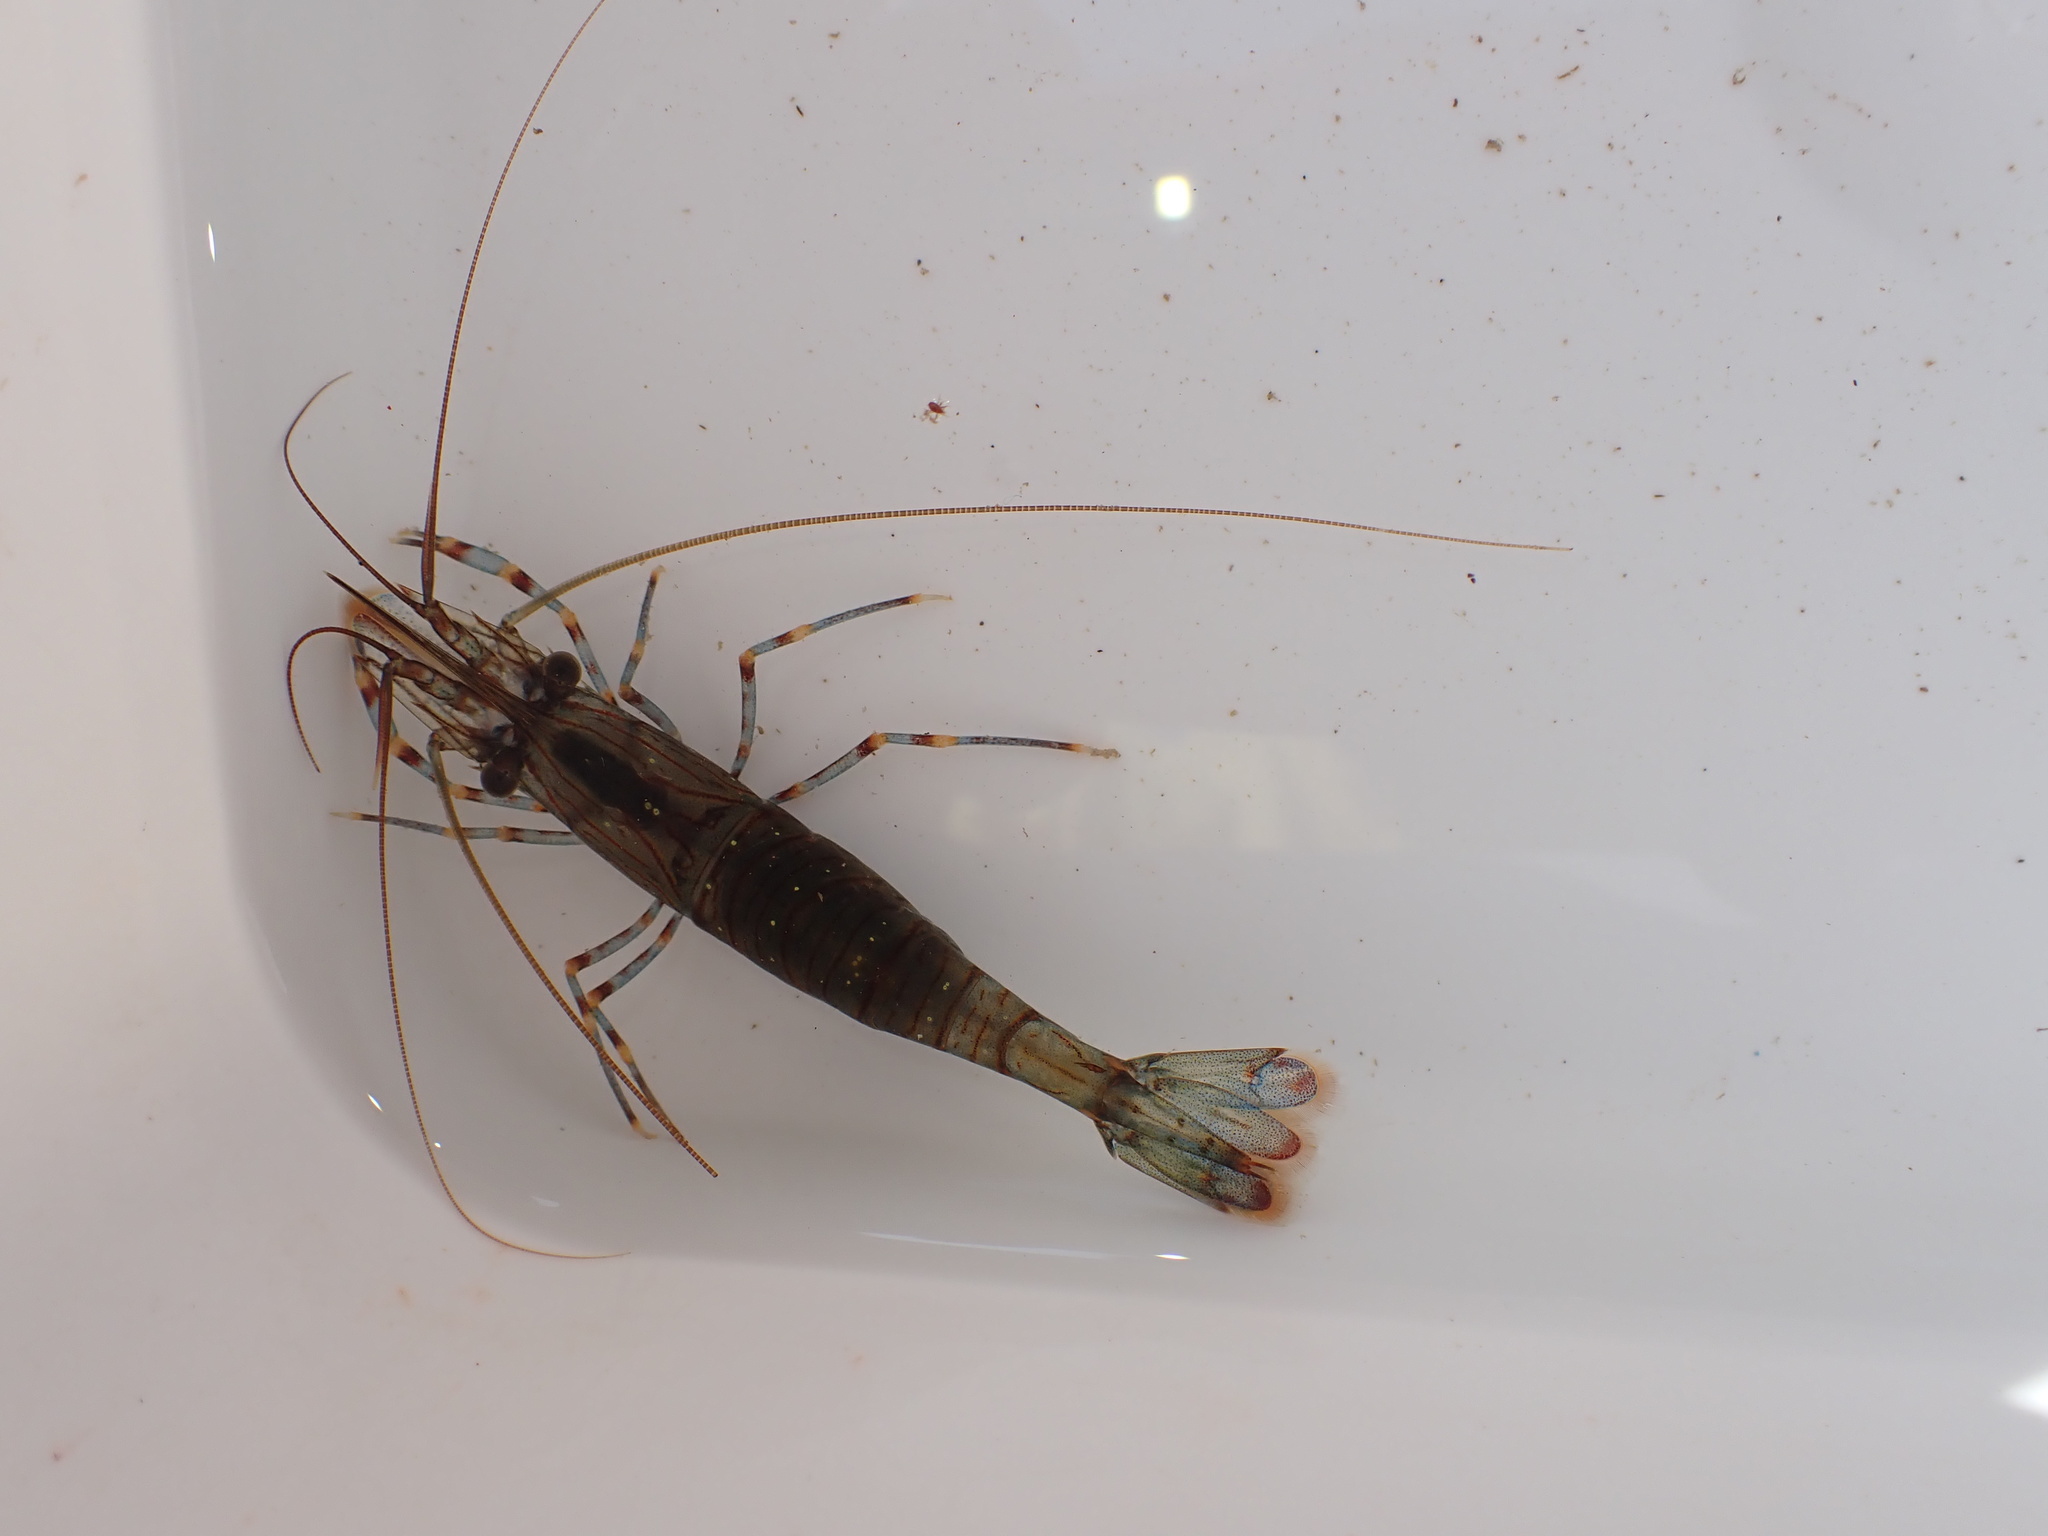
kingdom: Animalia
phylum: Arthropoda
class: Malacostraca
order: Decapoda
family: Palaemonidae
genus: Palaemon
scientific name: Palaemon serratus
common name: Common prawn
